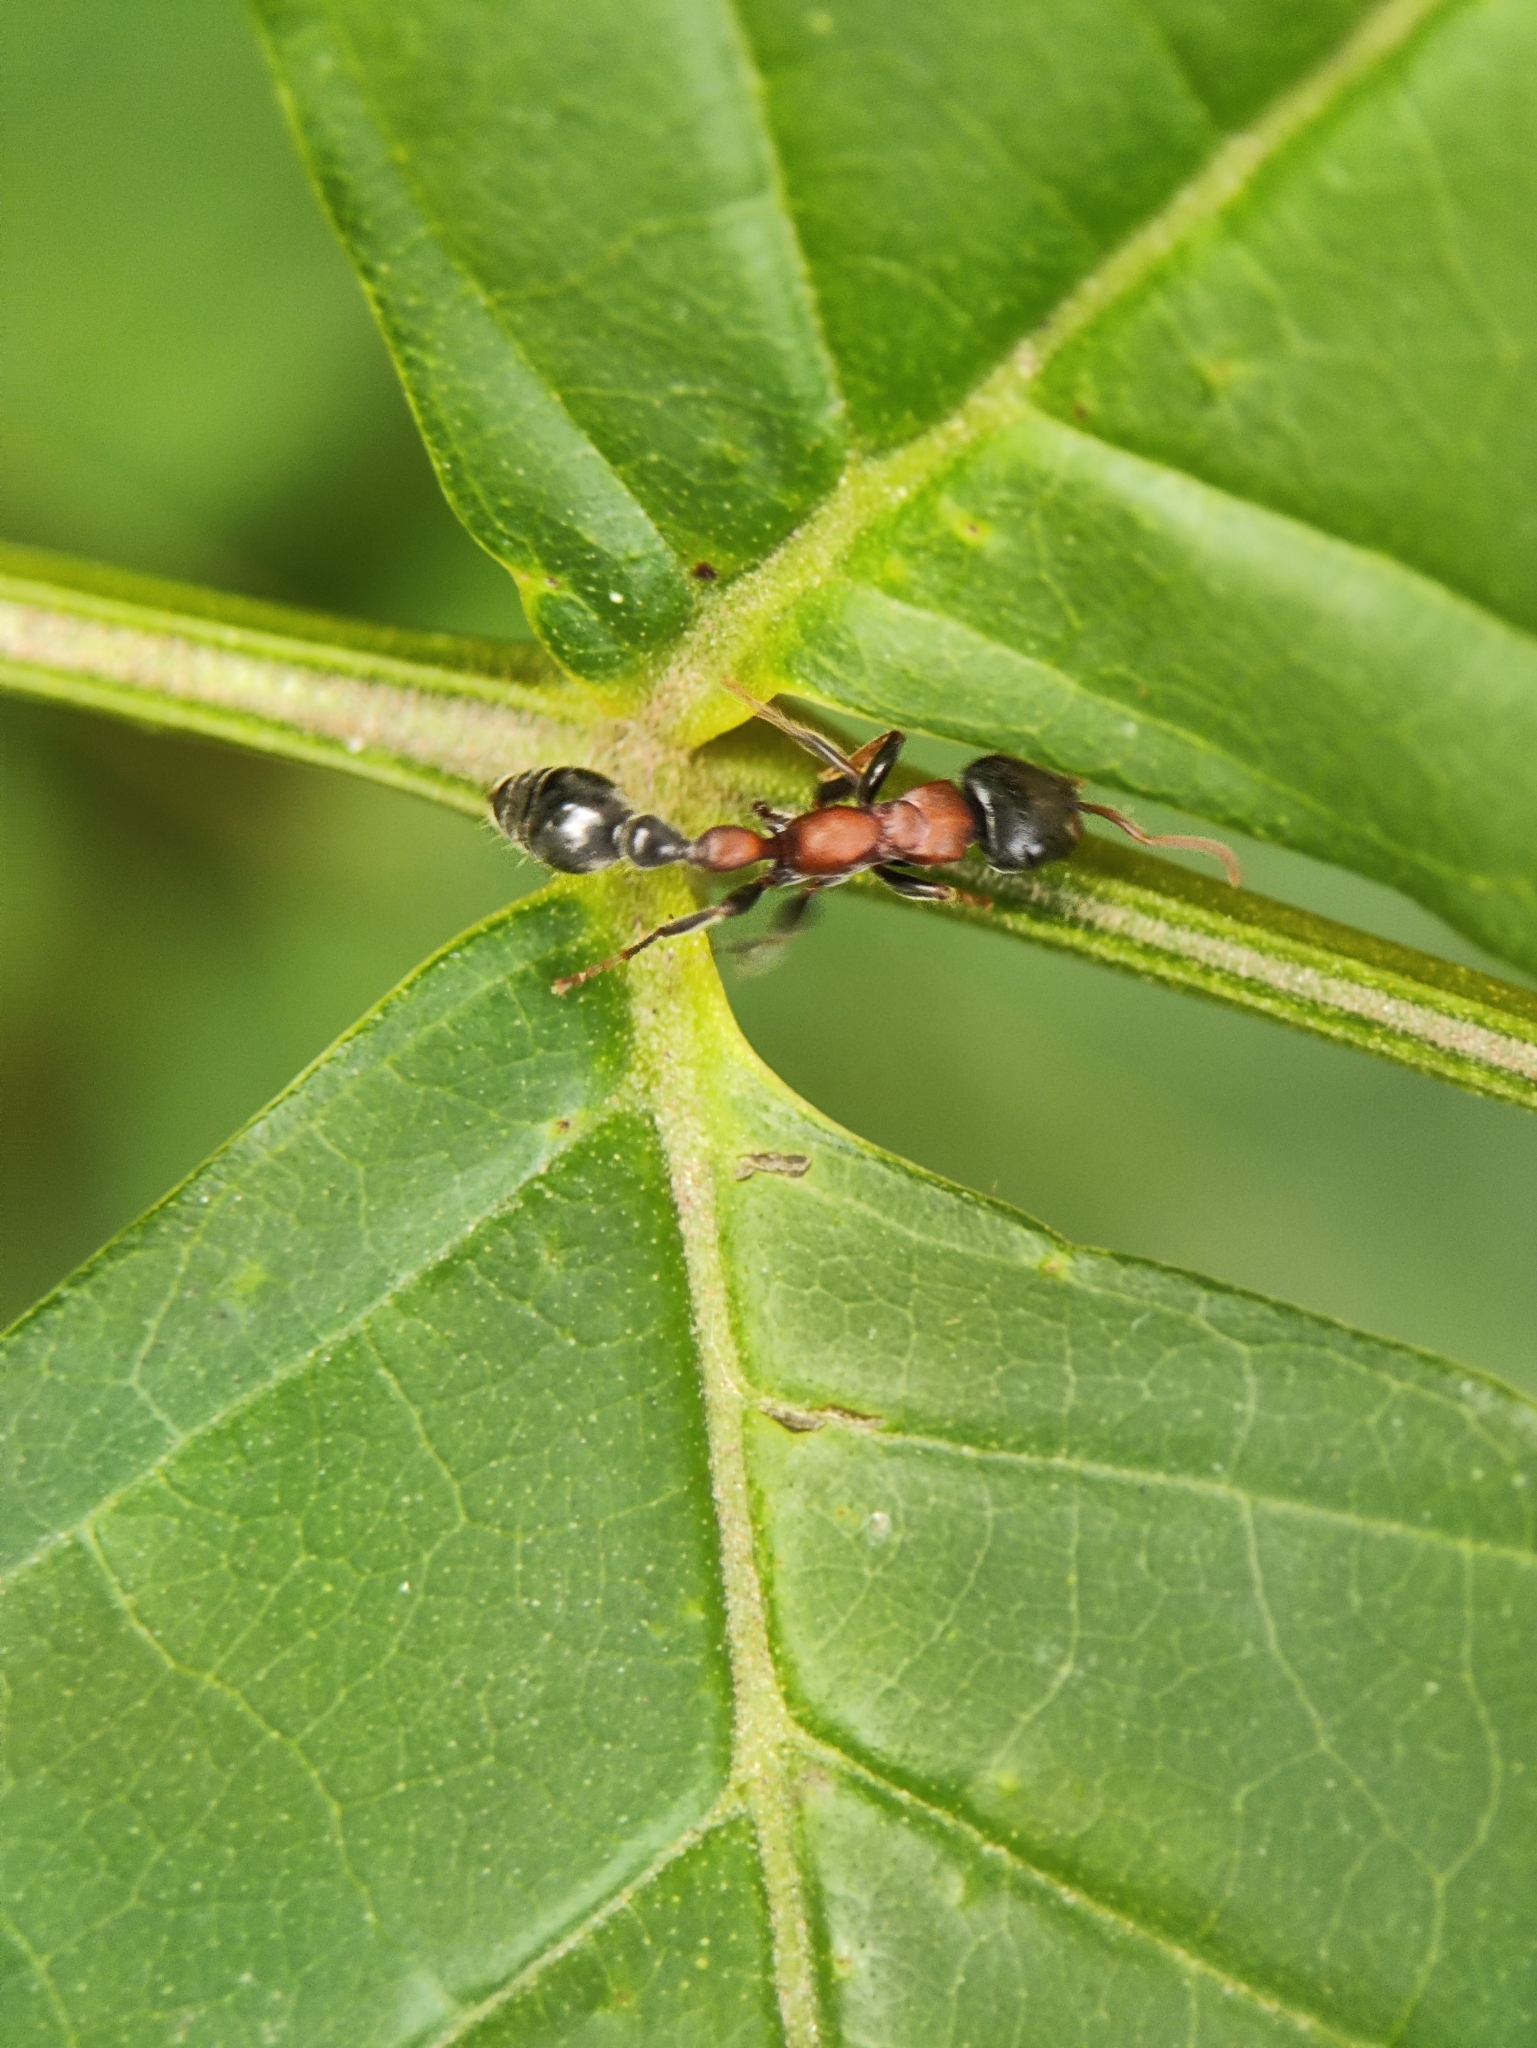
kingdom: Animalia
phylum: Arthropoda
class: Insecta
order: Hymenoptera
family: Formicidae
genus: Tetraponera
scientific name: Tetraponera rufonigra
